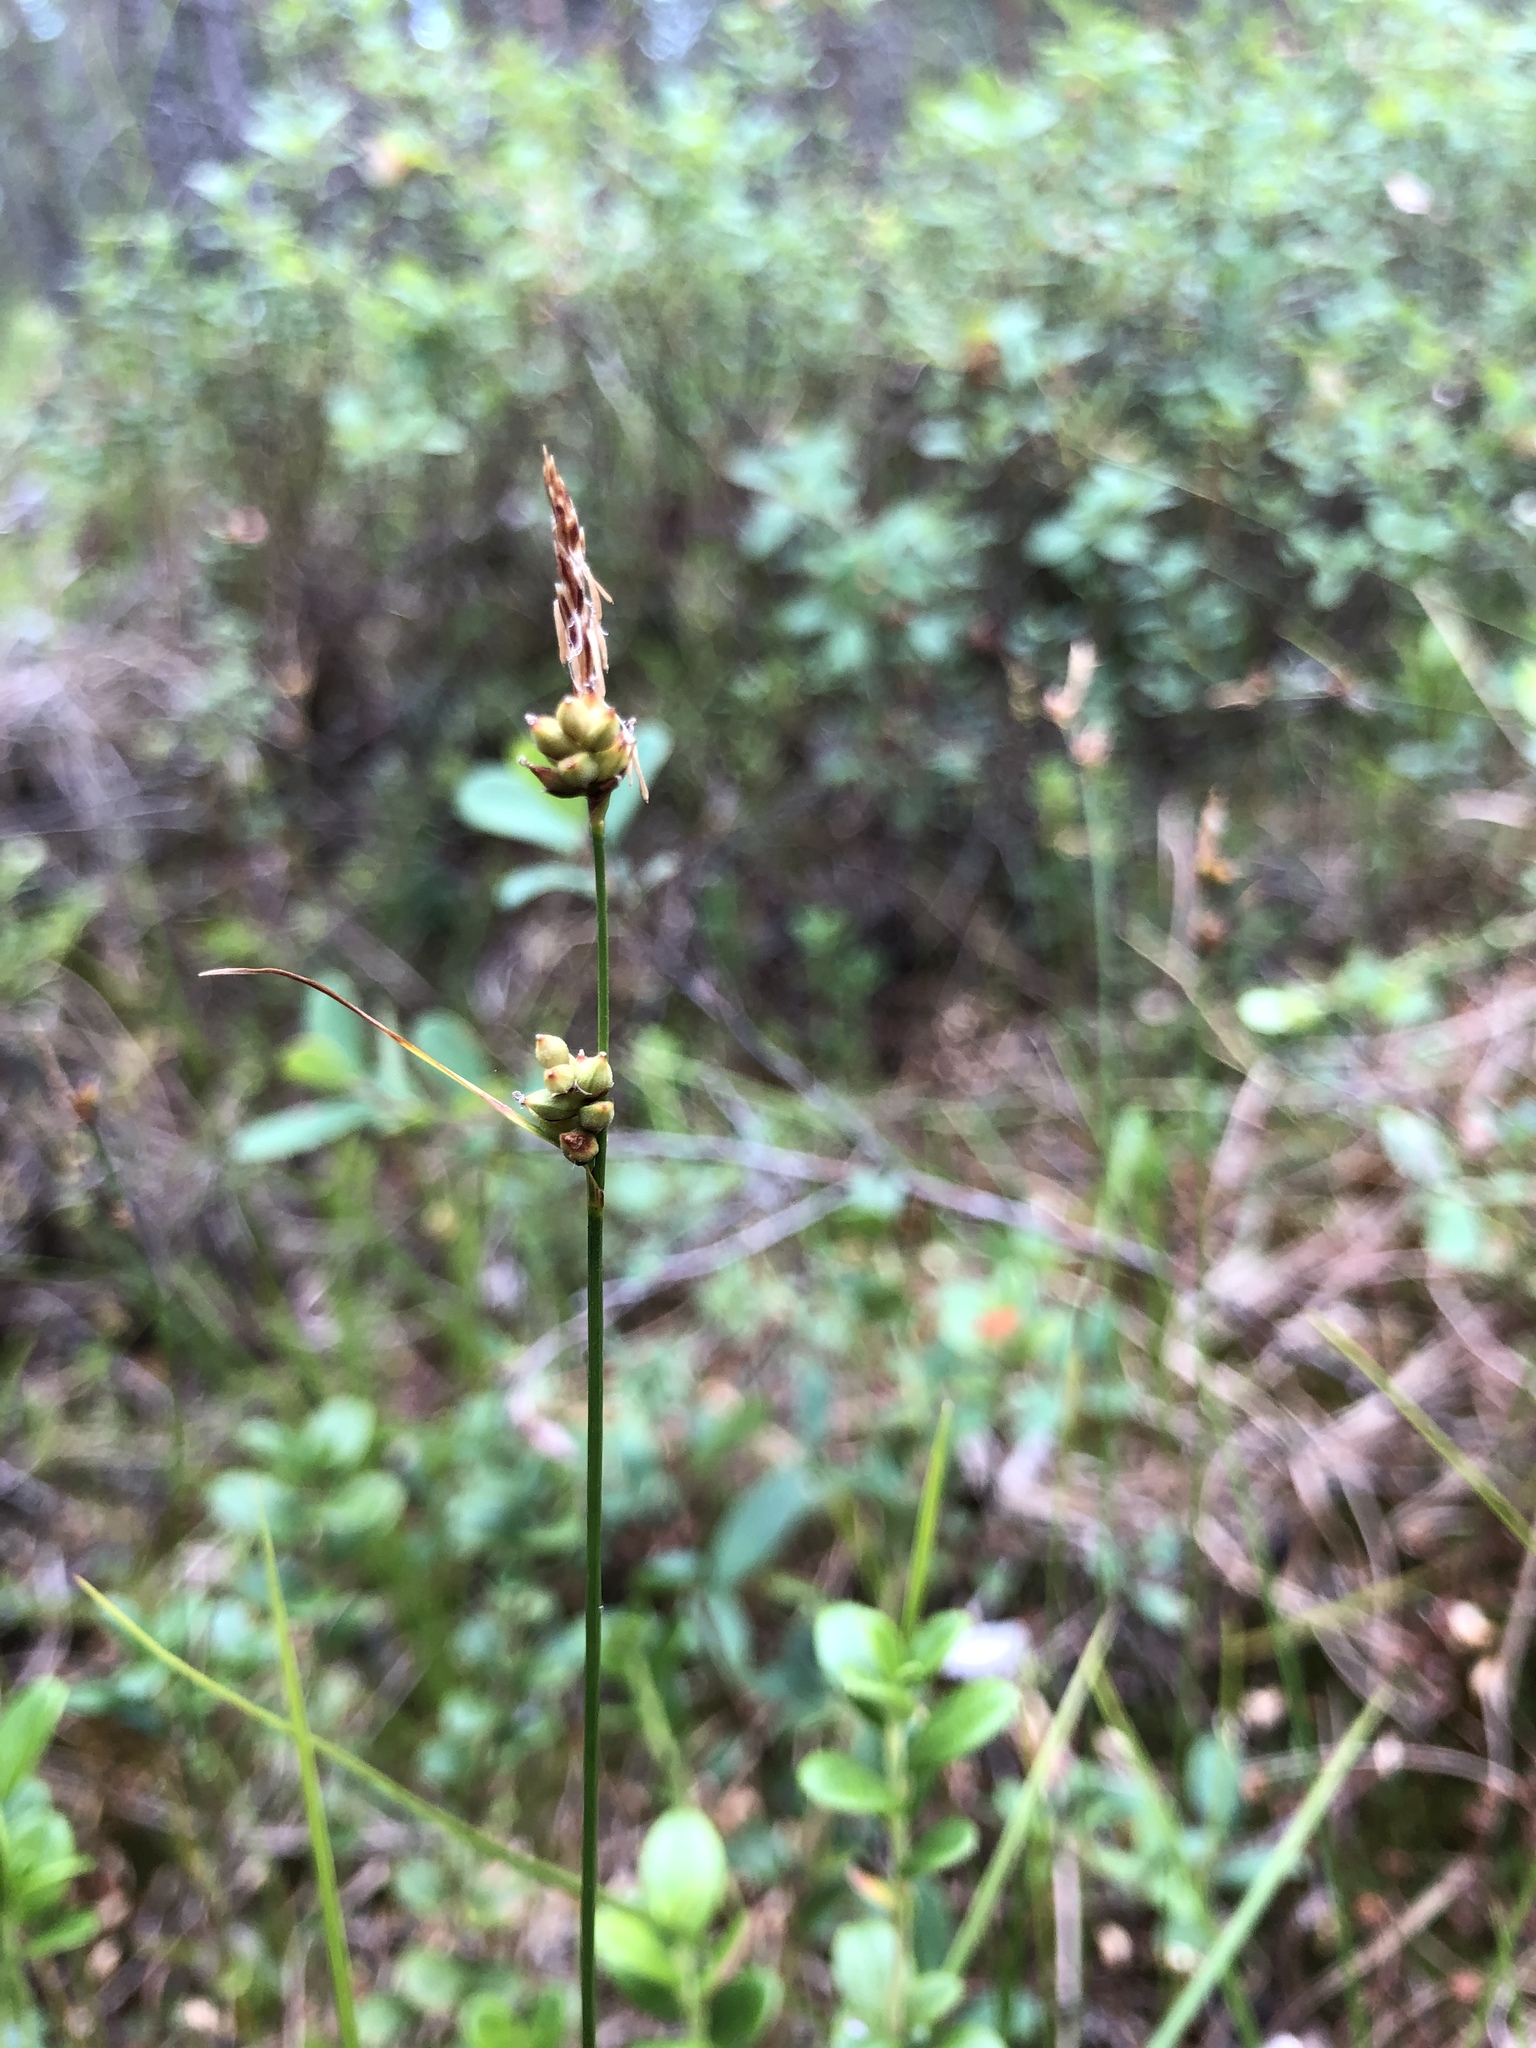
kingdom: Plantae
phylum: Tracheophyta
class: Liliopsida
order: Poales
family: Cyperaceae
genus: Carex
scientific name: Carex globularis
